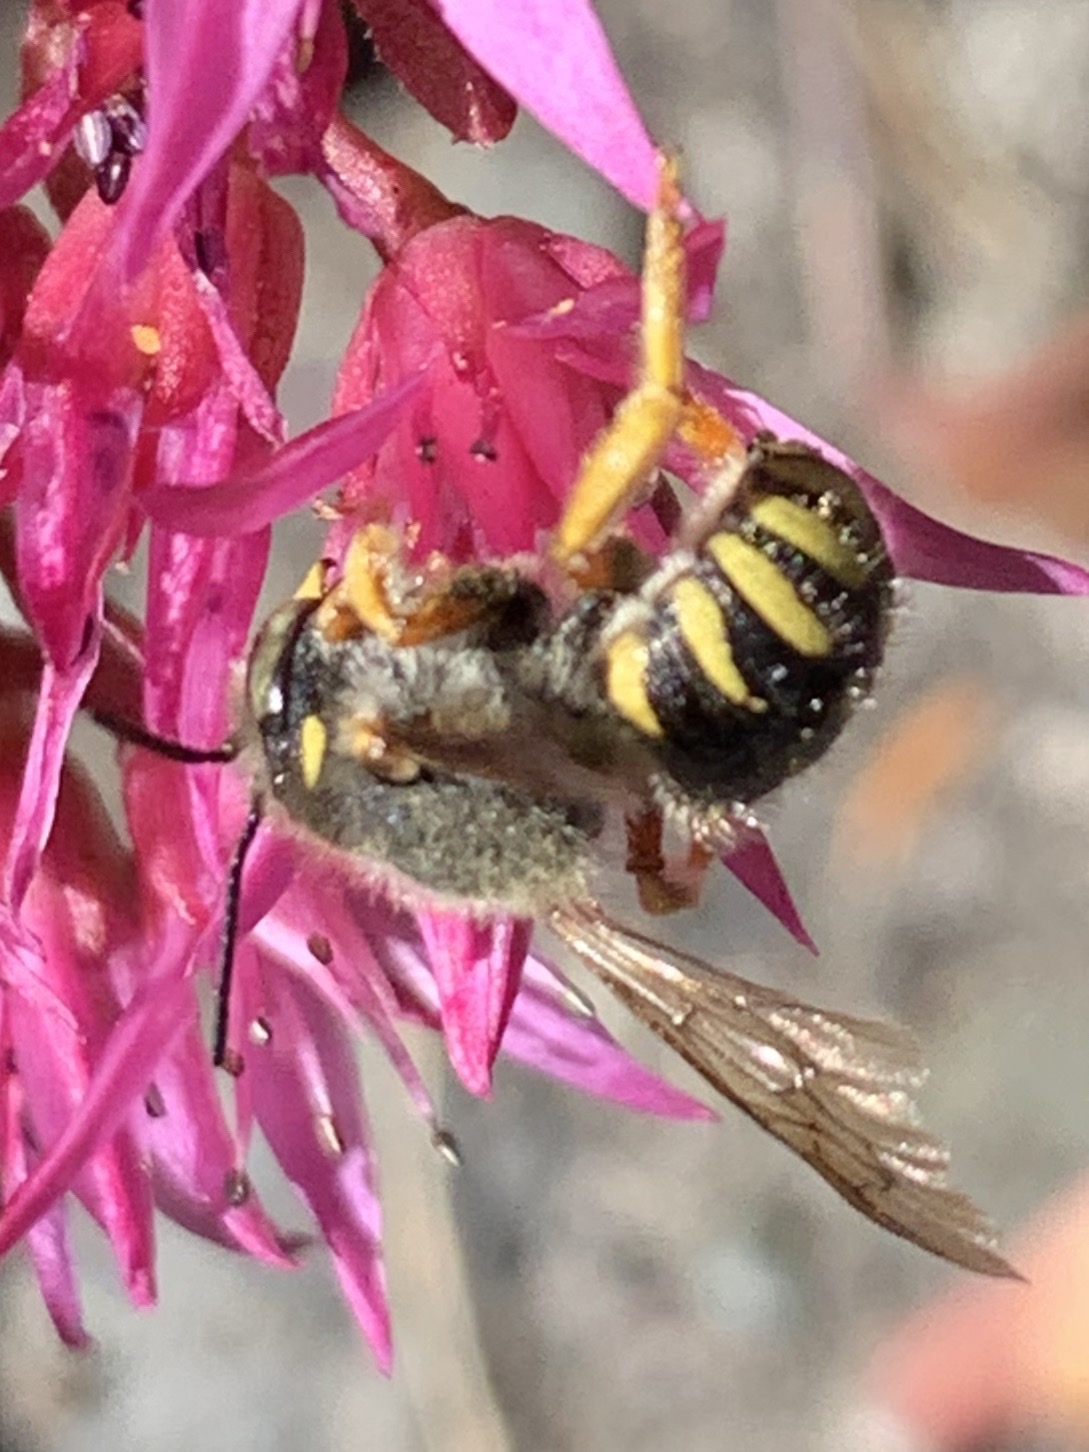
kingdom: Animalia
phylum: Arthropoda
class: Insecta
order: Hymenoptera
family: Megachilidae
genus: Anthidium
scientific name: Anthidium oblongatum
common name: Oblong wool carder bee
